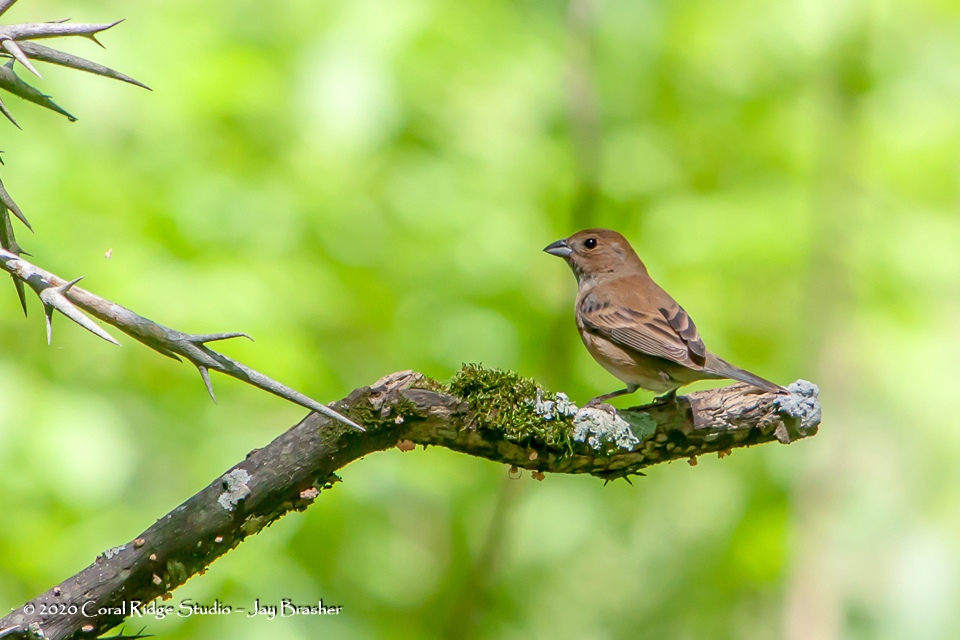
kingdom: Animalia
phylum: Chordata
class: Aves
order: Passeriformes
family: Cardinalidae
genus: Passerina
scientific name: Passerina cyanea
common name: Indigo bunting
